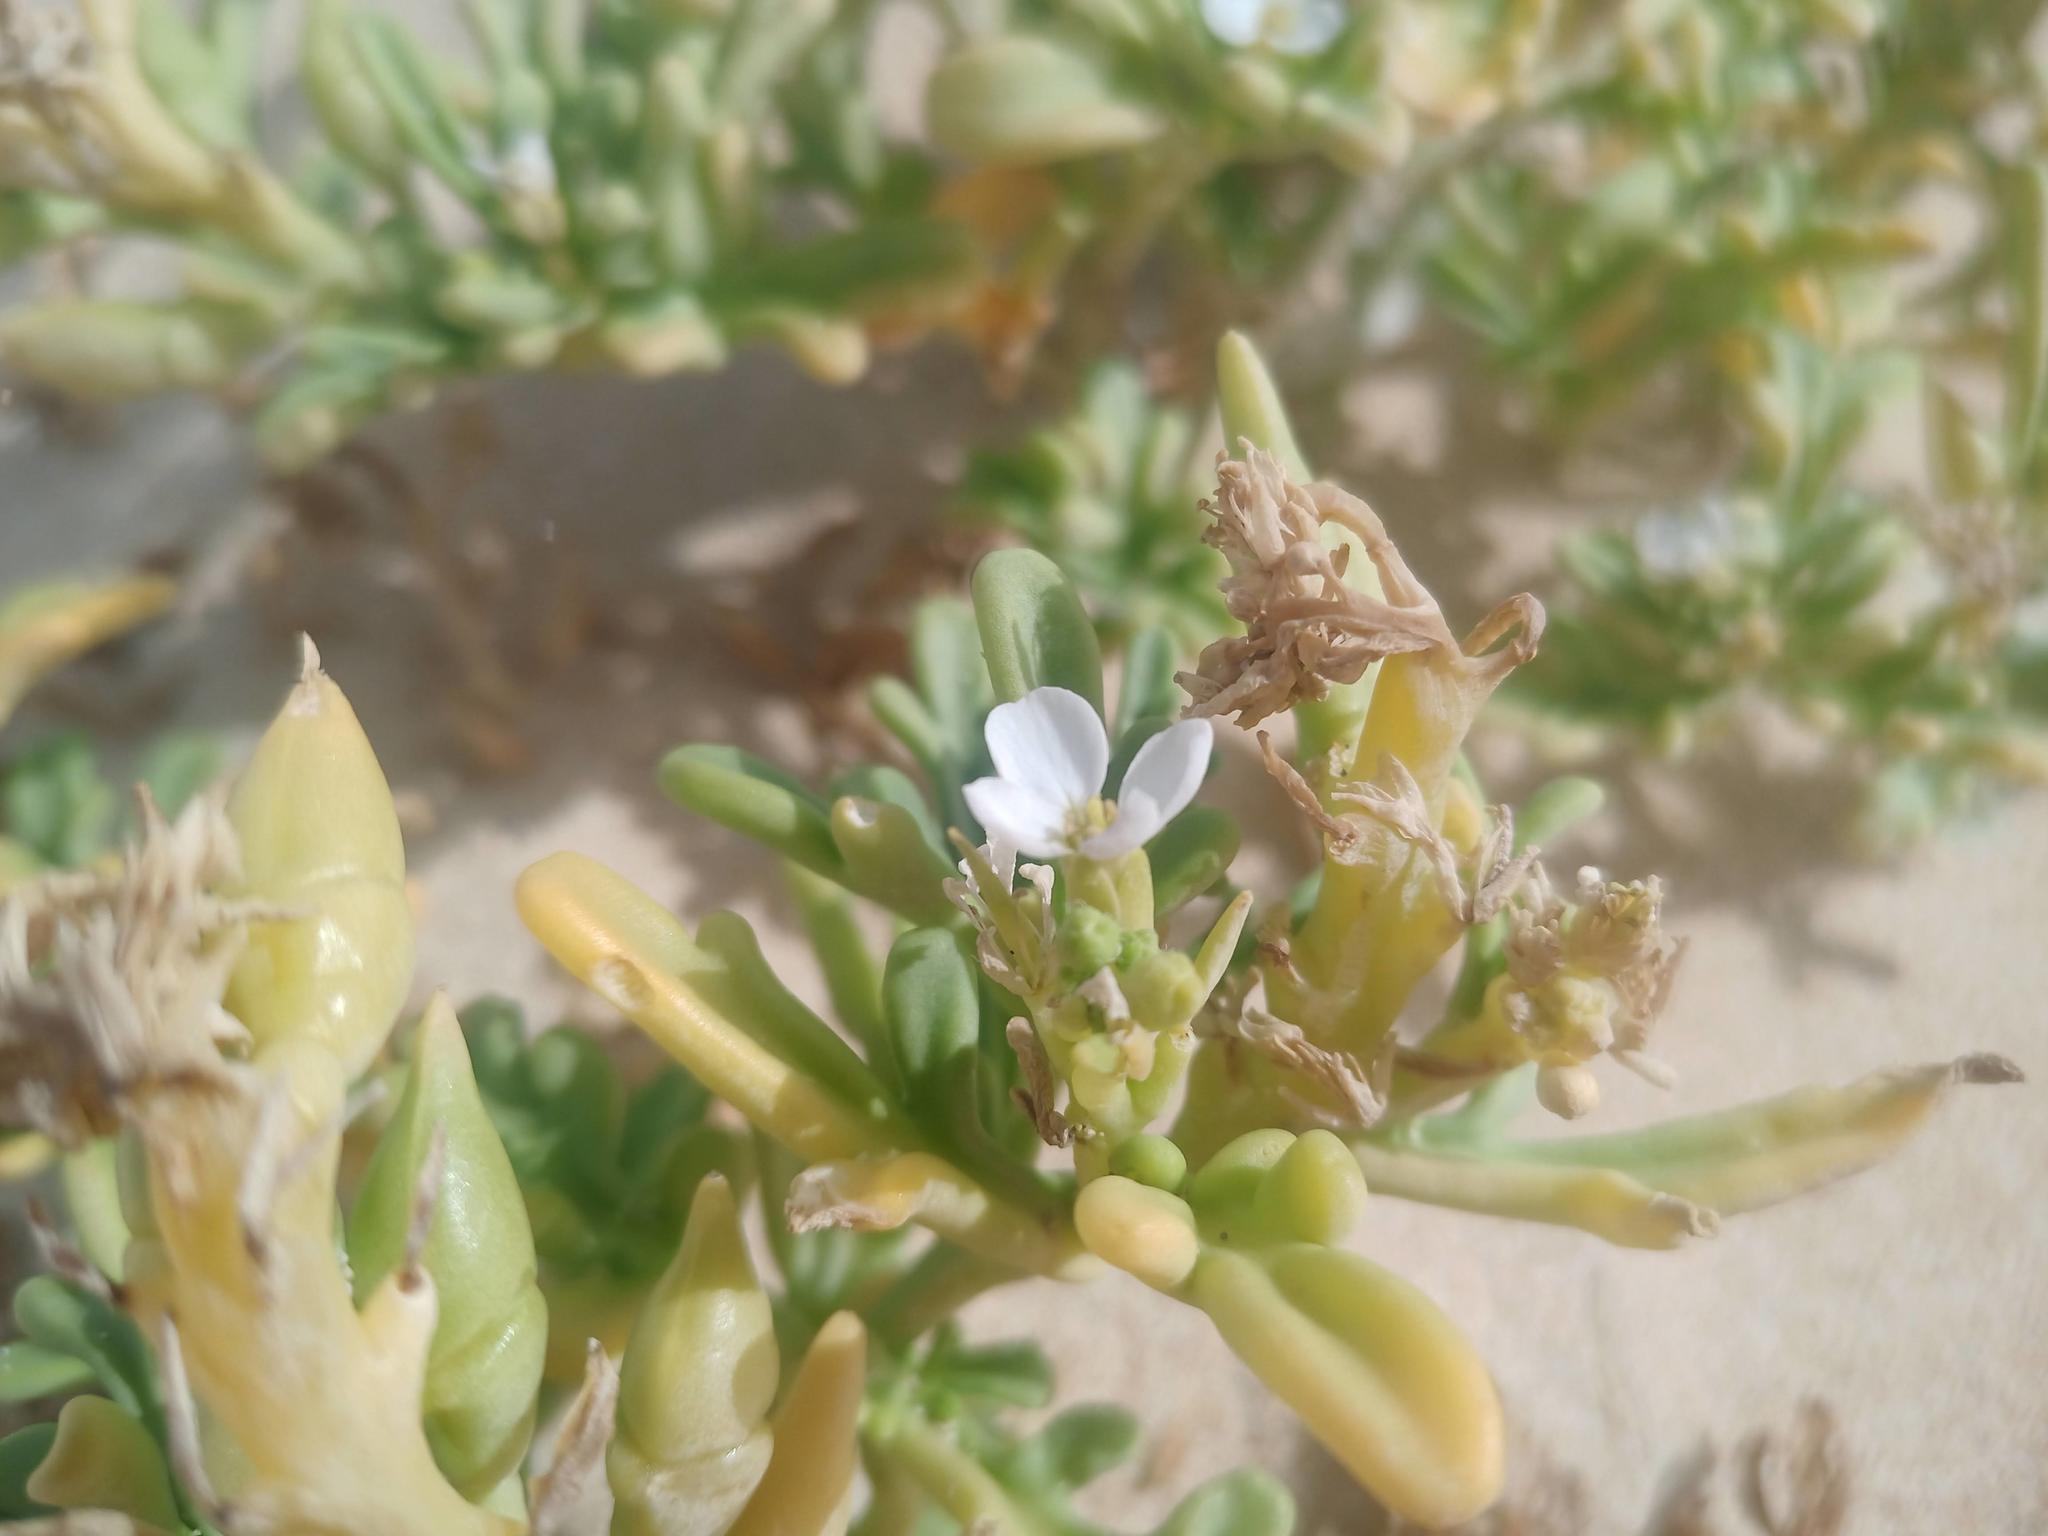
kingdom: Plantae
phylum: Tracheophyta
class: Magnoliopsida
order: Brassicales
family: Brassicaceae
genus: Cakile
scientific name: Cakile maritima
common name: Sea rocket
